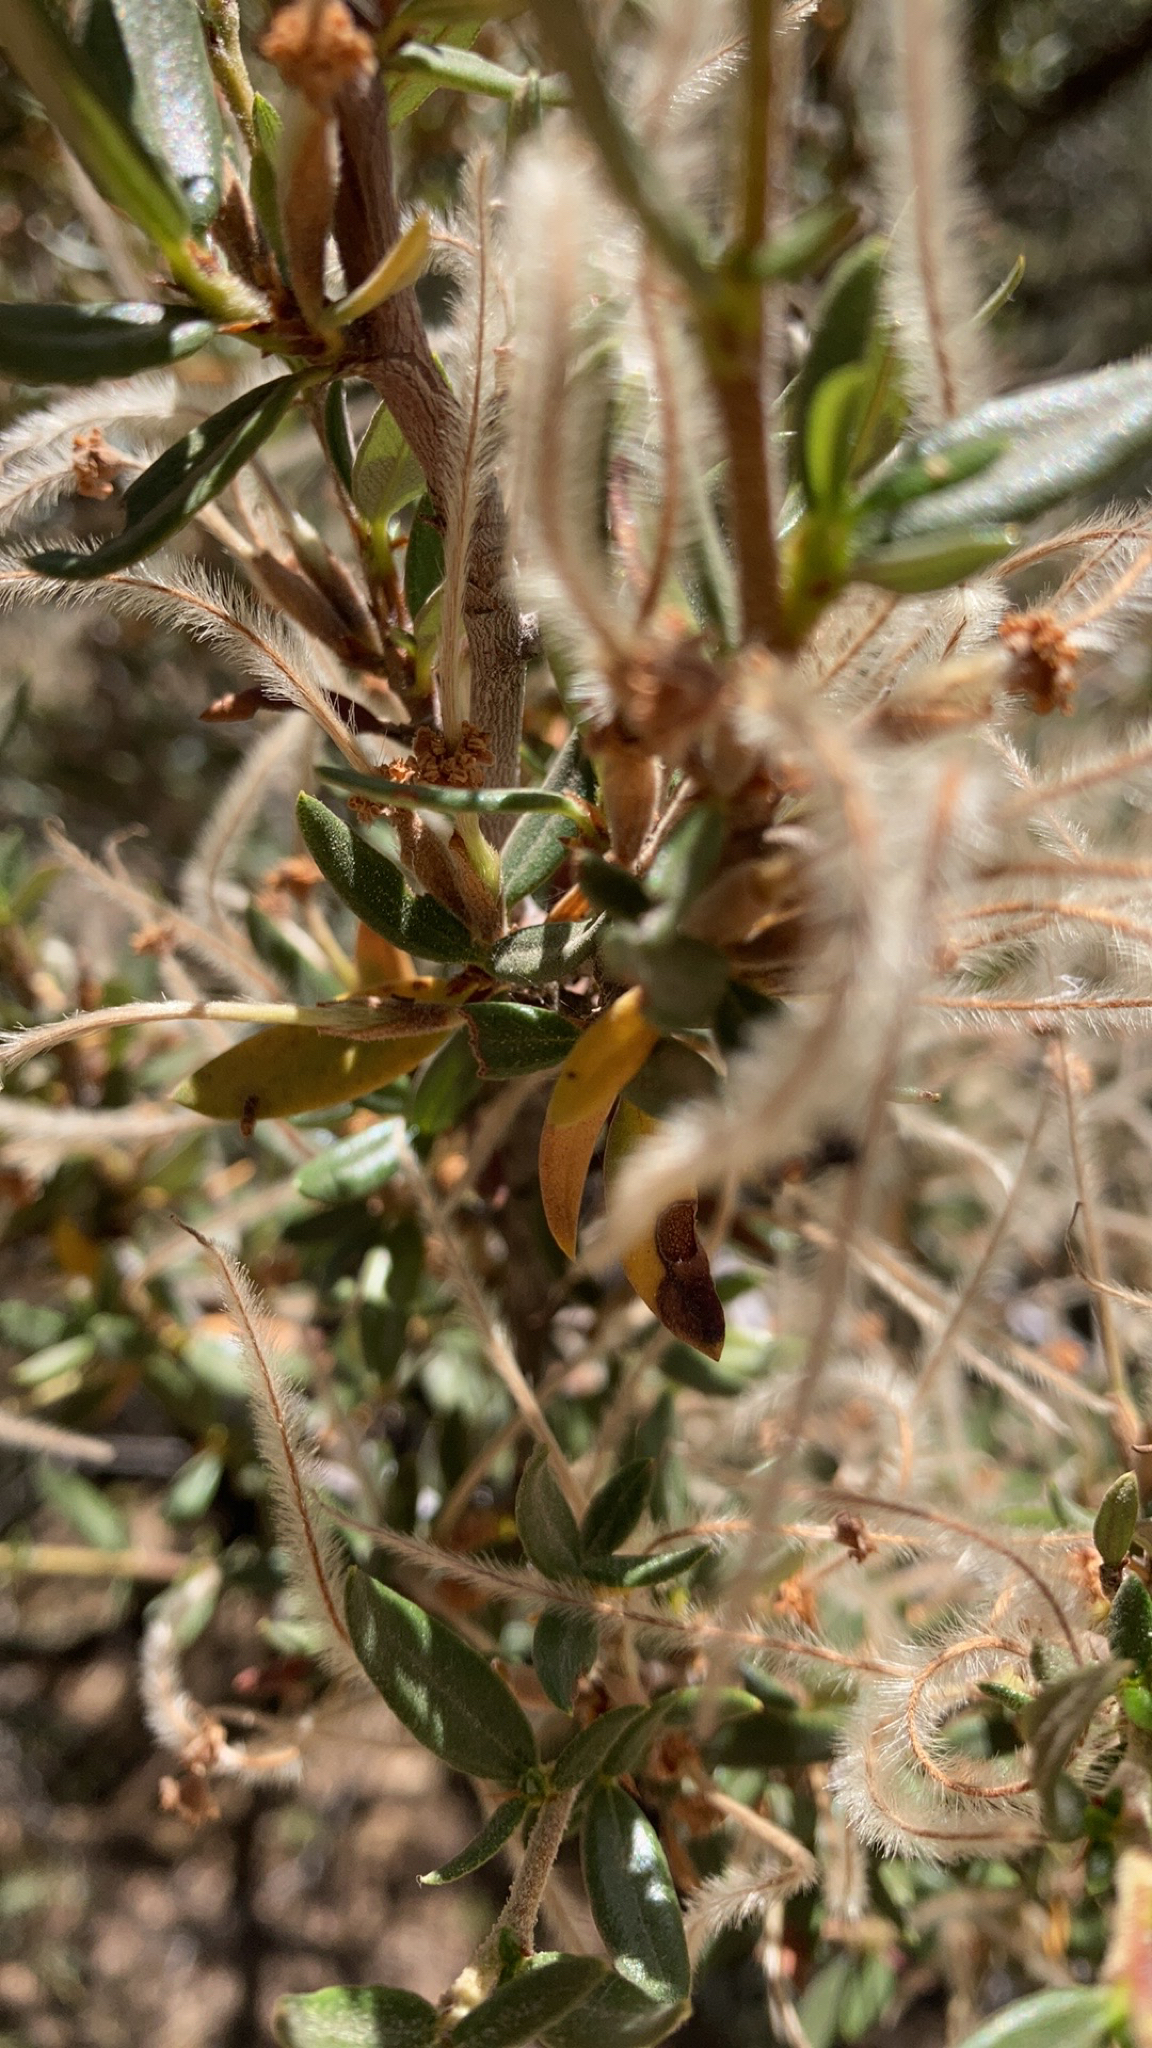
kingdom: Plantae
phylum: Tracheophyta
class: Magnoliopsida
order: Rosales
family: Rosaceae
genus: Cercocarpus
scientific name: Cercocarpus ledifolius
